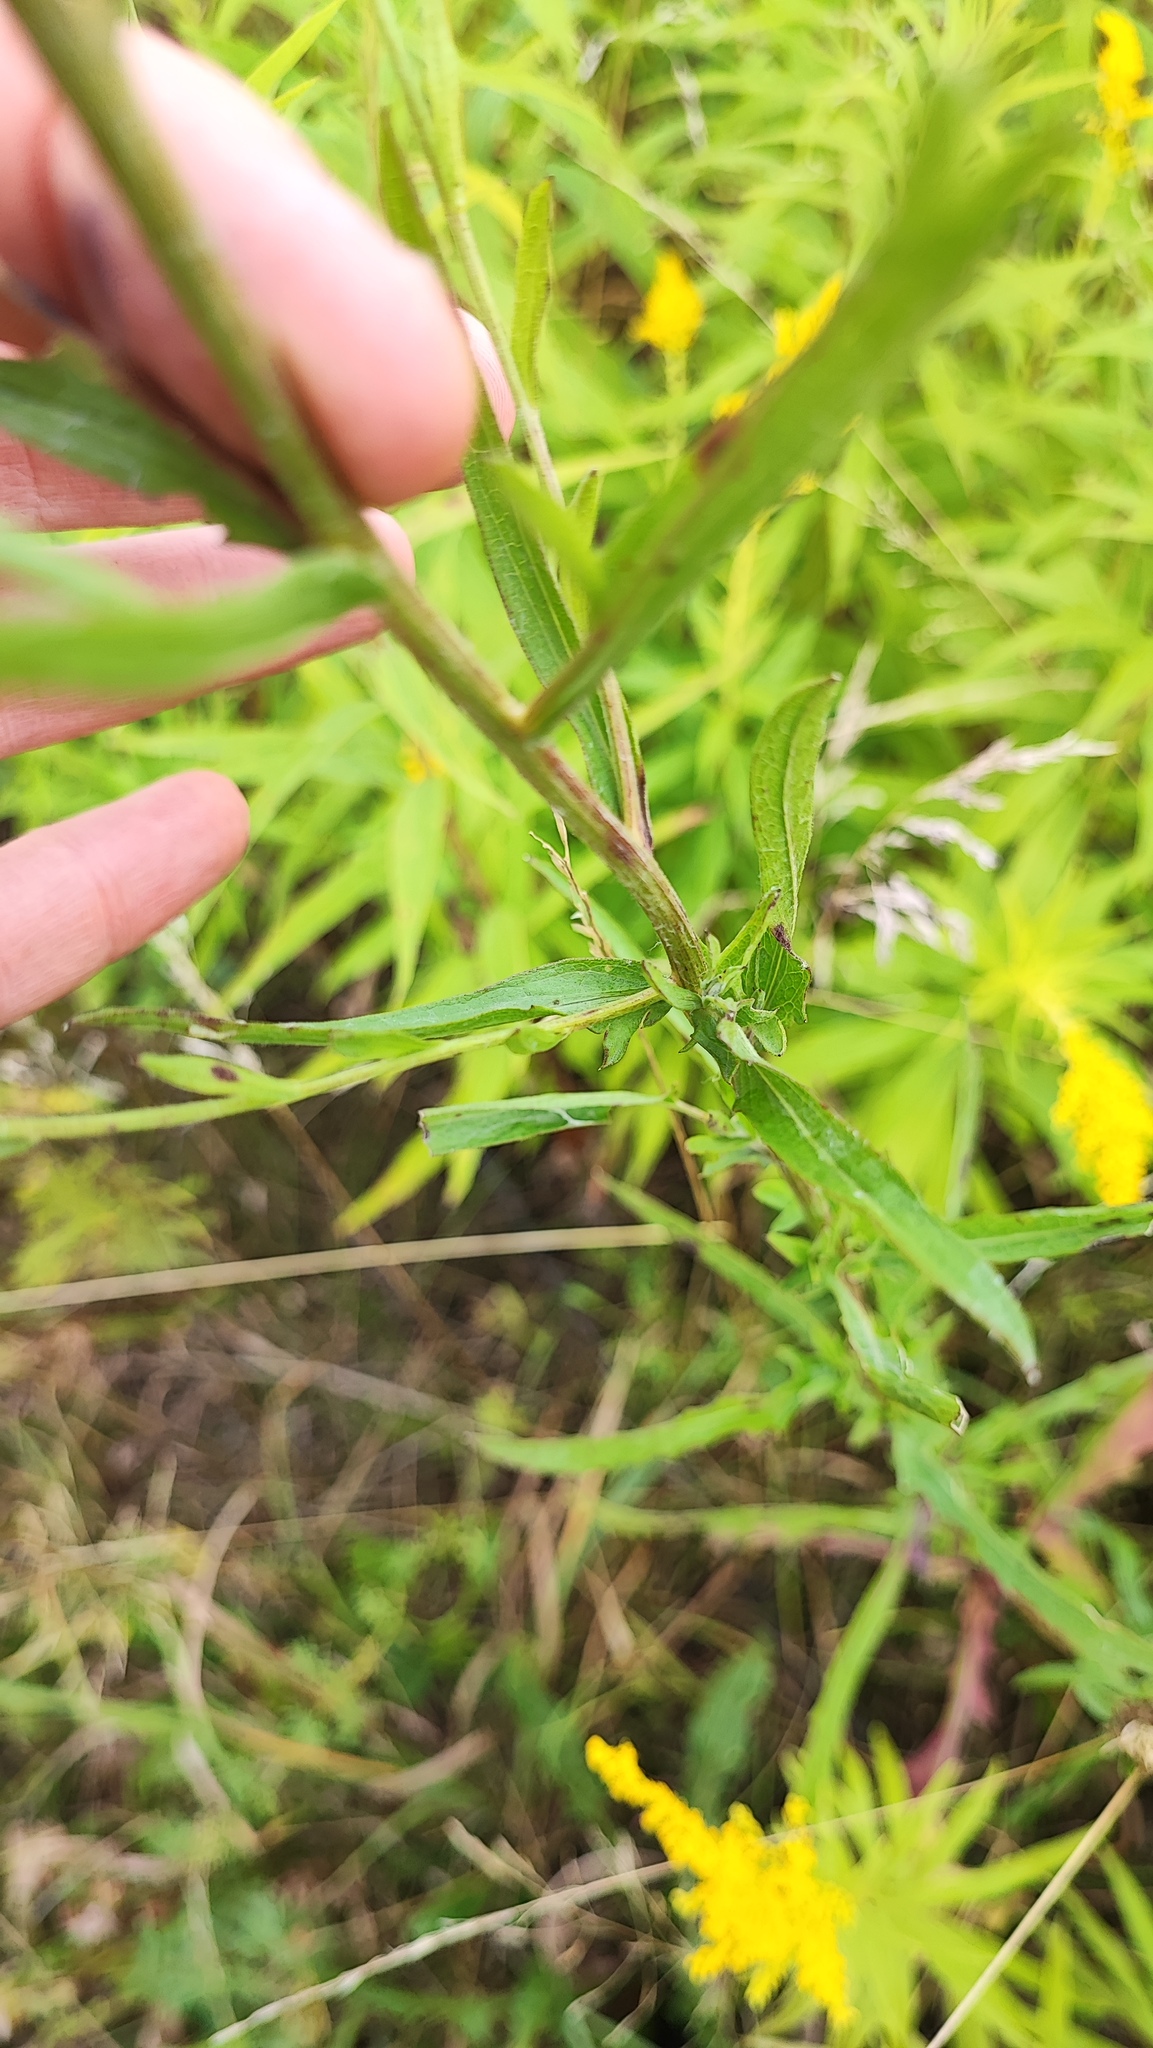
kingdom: Plantae
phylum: Tracheophyta
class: Magnoliopsida
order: Asterales
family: Asteraceae
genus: Centaurea
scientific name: Centaurea jacea
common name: Brown knapweed
